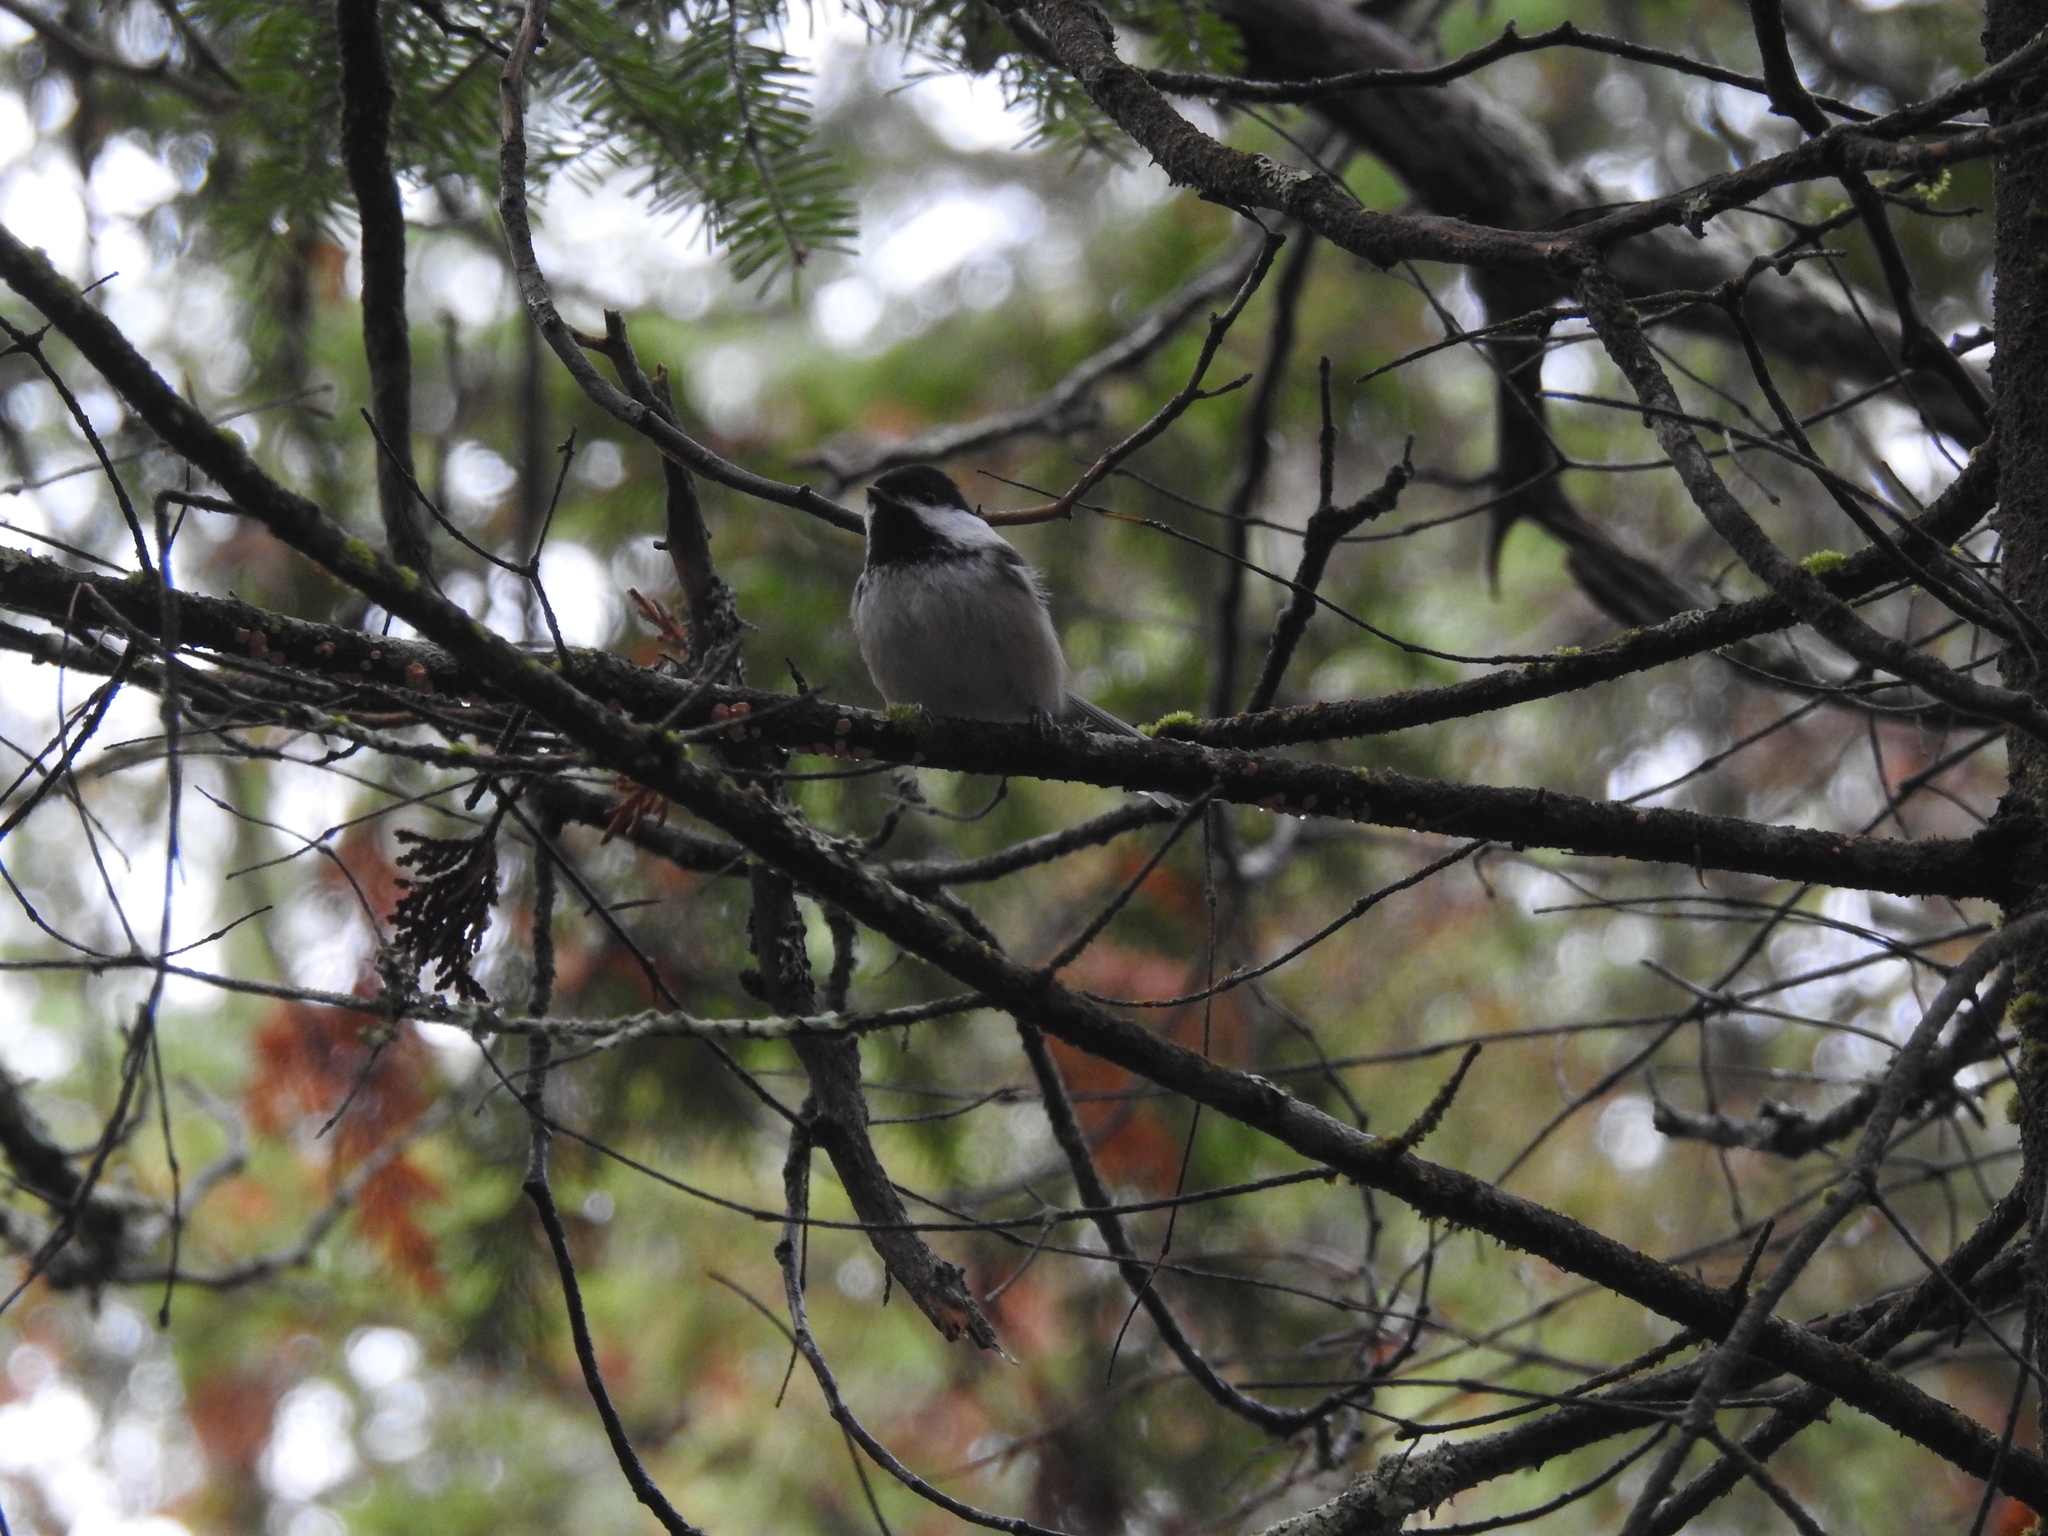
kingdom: Animalia
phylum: Chordata
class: Aves
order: Passeriformes
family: Paridae
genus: Poecile
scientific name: Poecile atricapillus
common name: Black-capped chickadee
